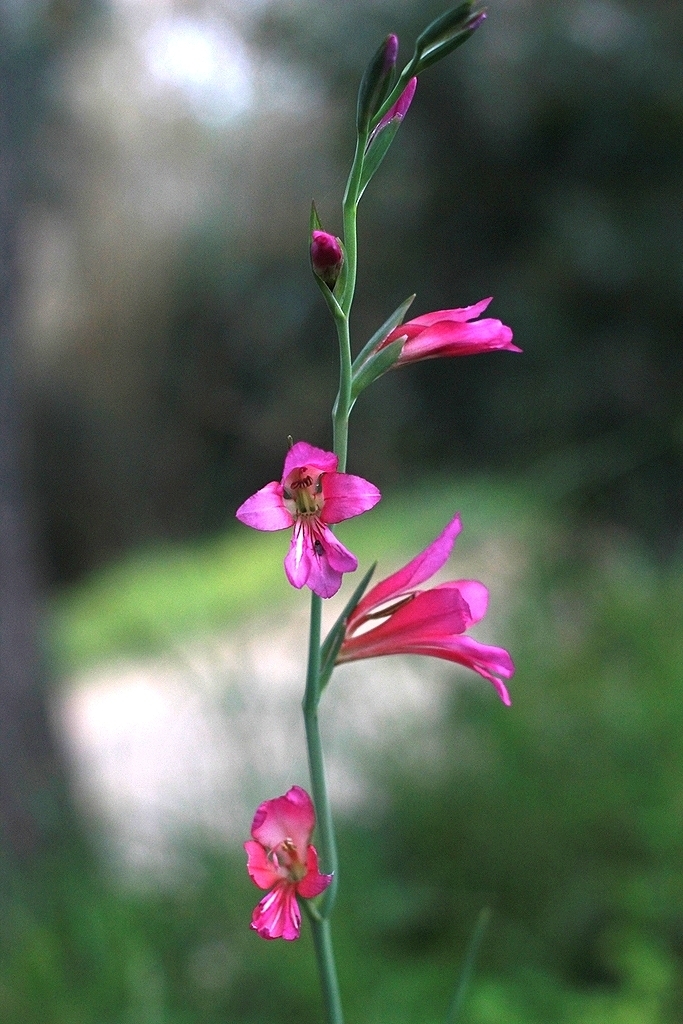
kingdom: Plantae
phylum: Tracheophyta
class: Liliopsida
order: Asparagales
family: Iridaceae
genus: Gladiolus
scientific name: Gladiolus byzantinus
